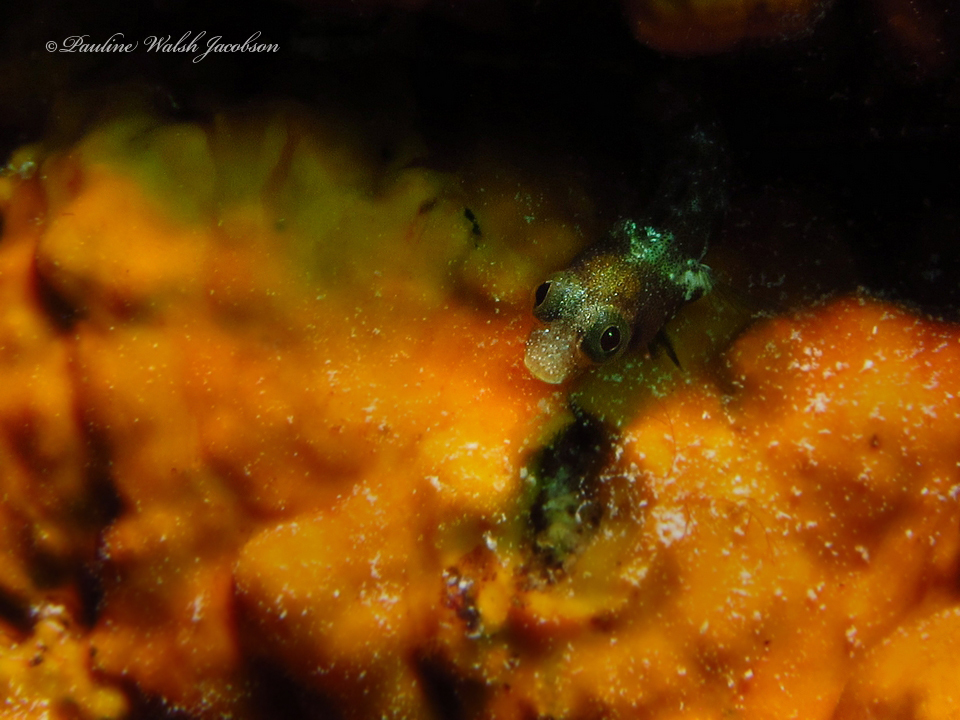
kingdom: Animalia
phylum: Chordata
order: Perciformes
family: Chaenopsidae
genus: Acanthemblemaria
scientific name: Acanthemblemaria spinosa
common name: Spinyhead blenny
